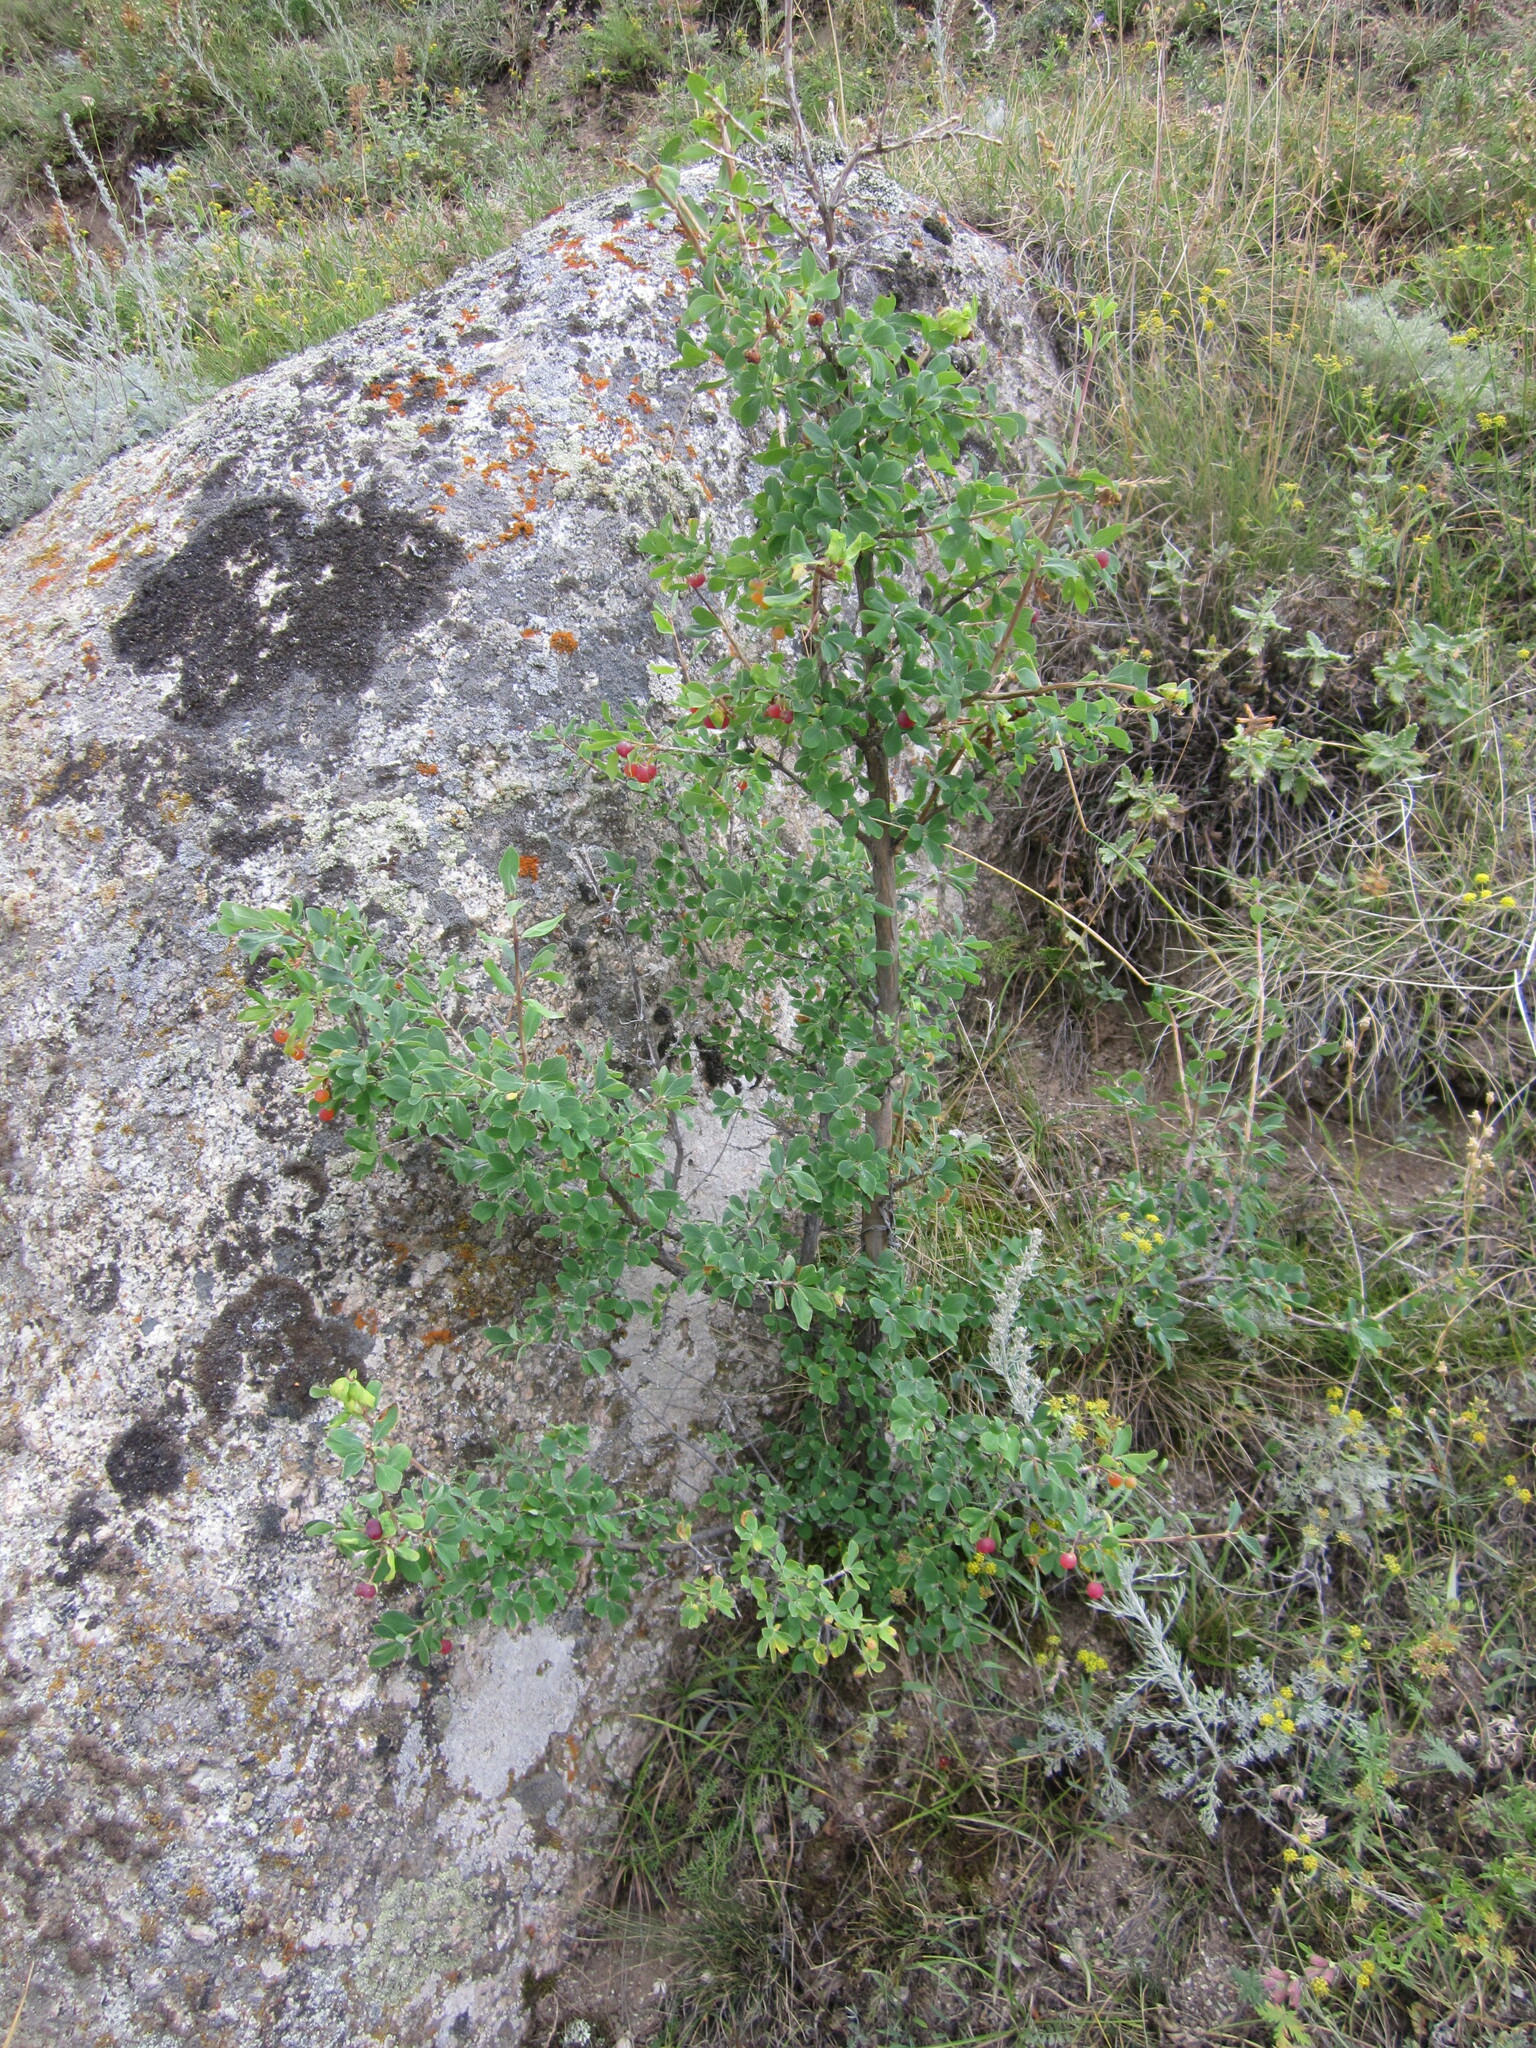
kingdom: Plantae
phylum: Tracheophyta
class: Magnoliopsida
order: Dipsacales
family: Caprifoliaceae
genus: Lonicera
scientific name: Lonicera microphylla
